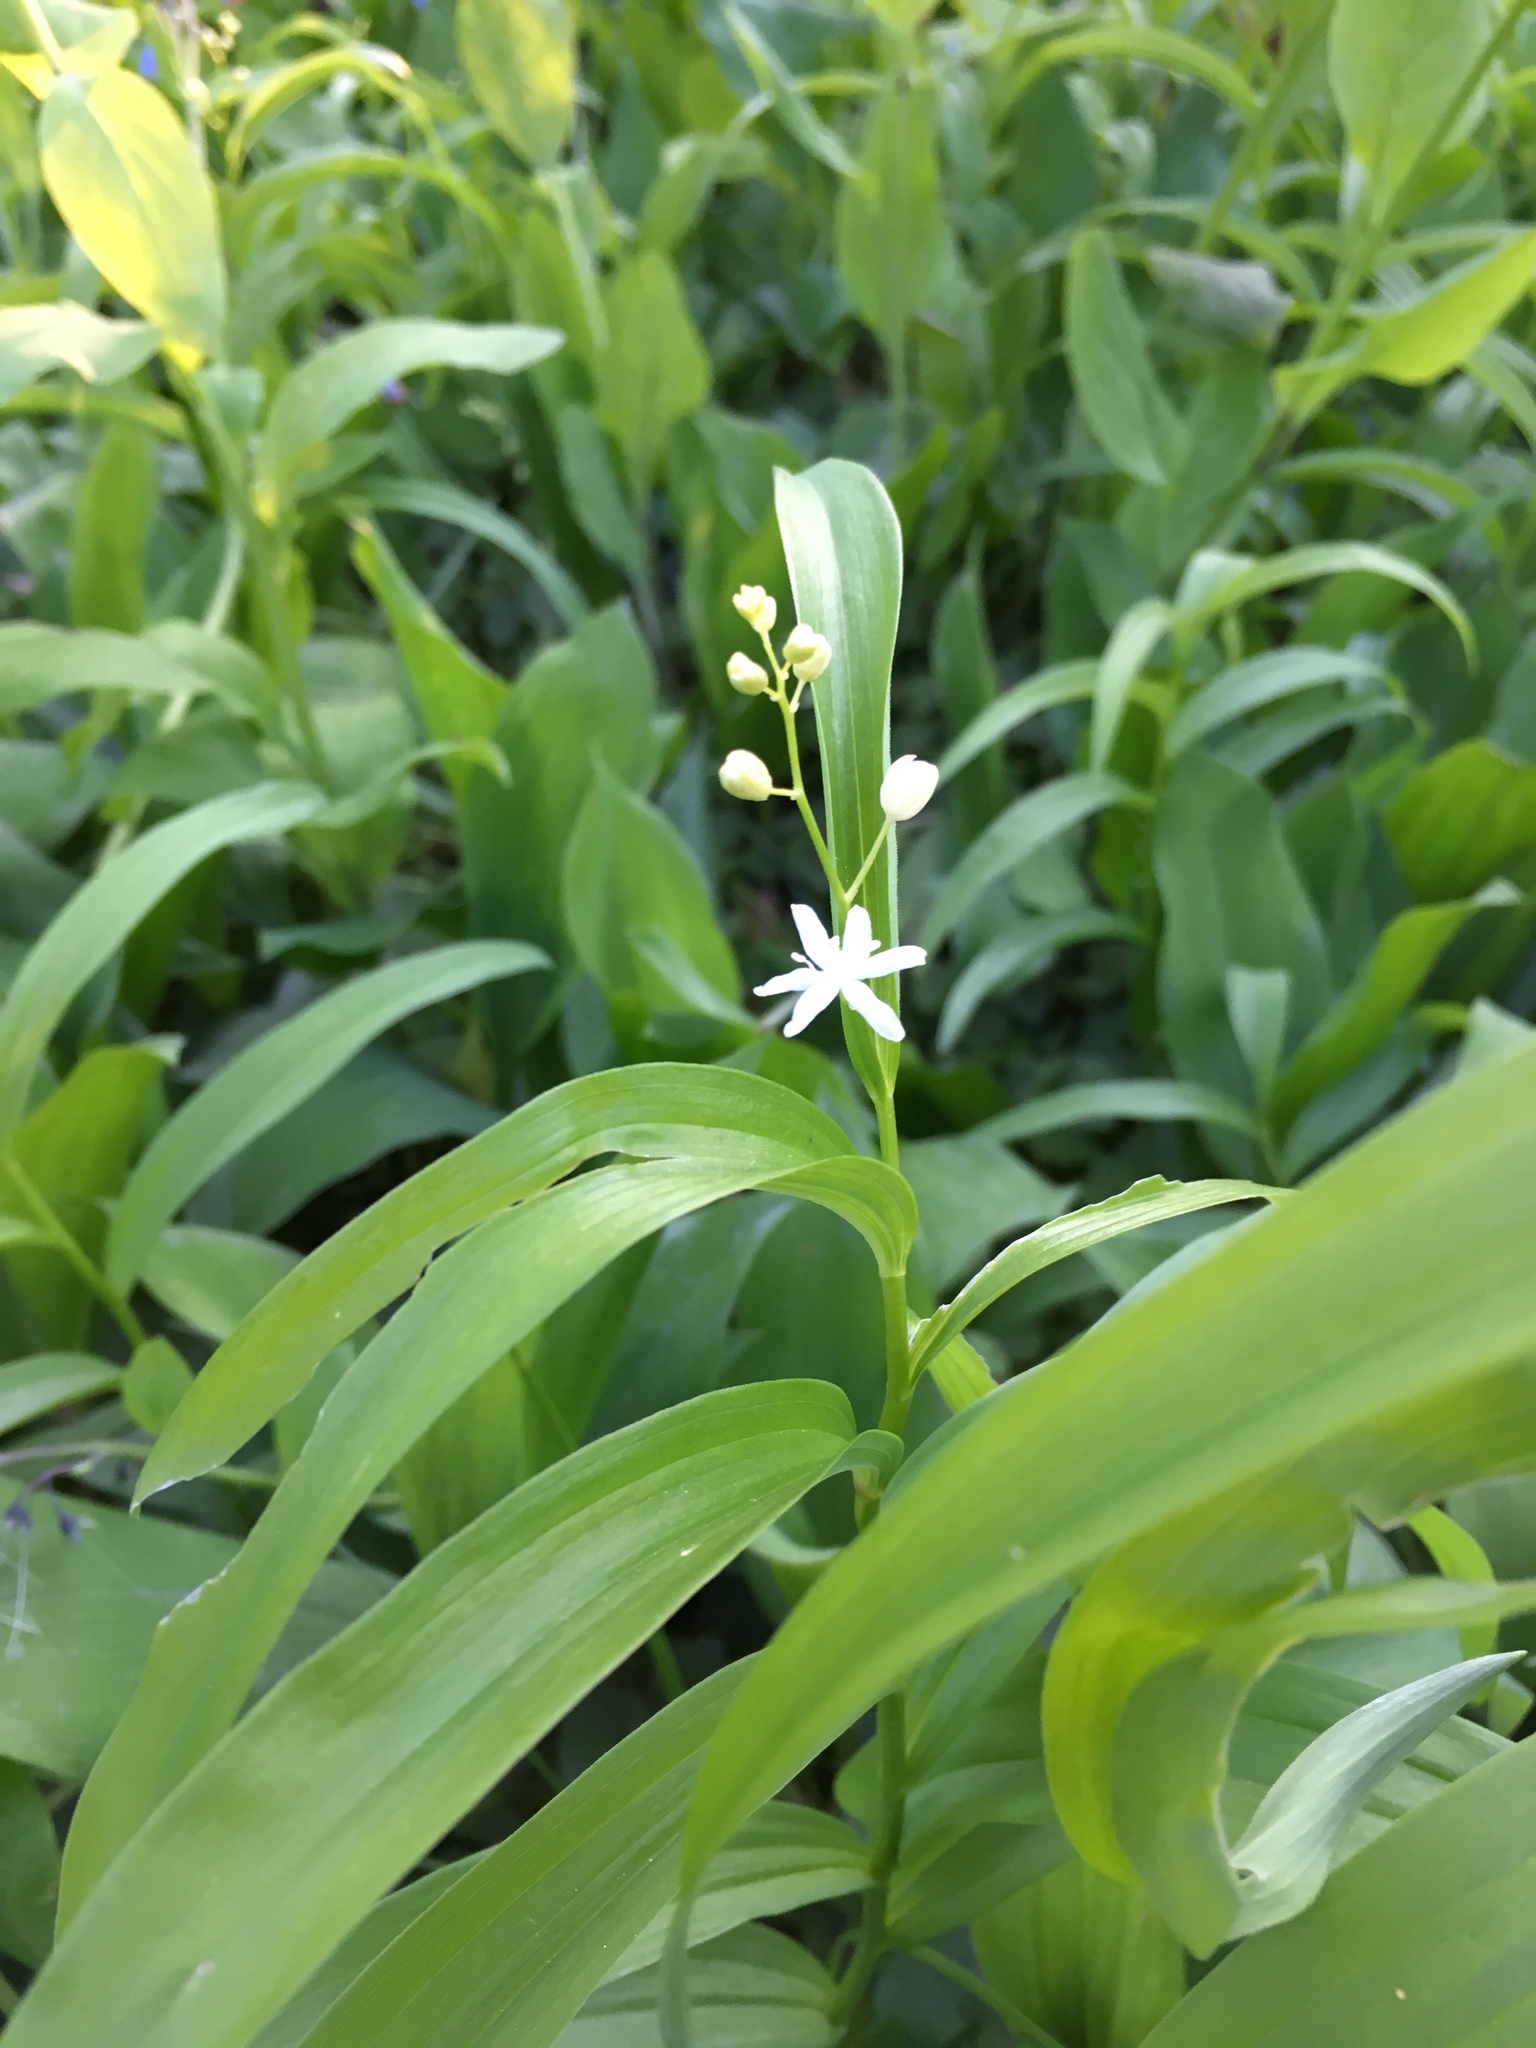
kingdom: Plantae
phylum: Tracheophyta
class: Liliopsida
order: Asparagales
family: Asparagaceae
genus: Maianthemum
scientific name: Maianthemum stellatum
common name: Little false solomon's seal
